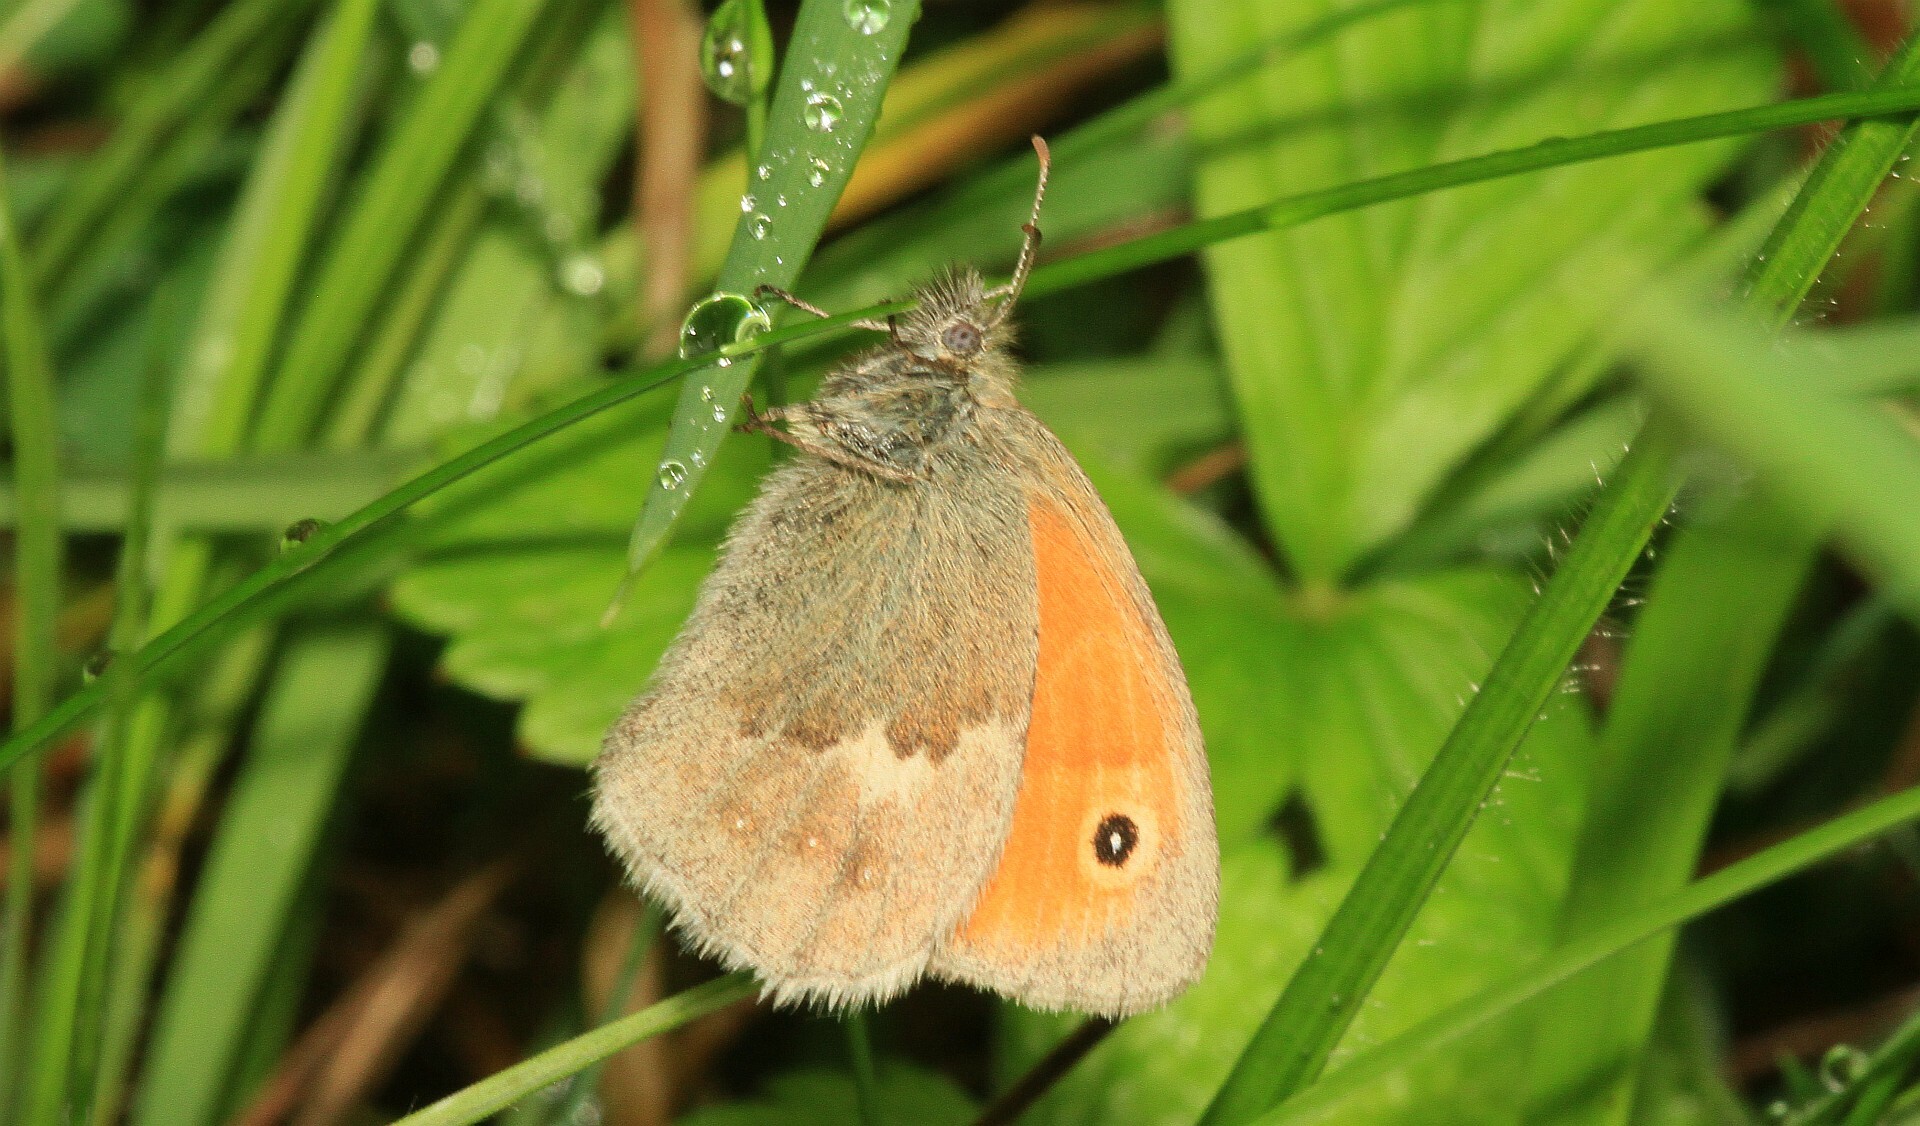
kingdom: Animalia
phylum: Arthropoda
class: Insecta
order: Lepidoptera
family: Nymphalidae
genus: Coenonympha
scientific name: Coenonympha pamphilus
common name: Small heath
